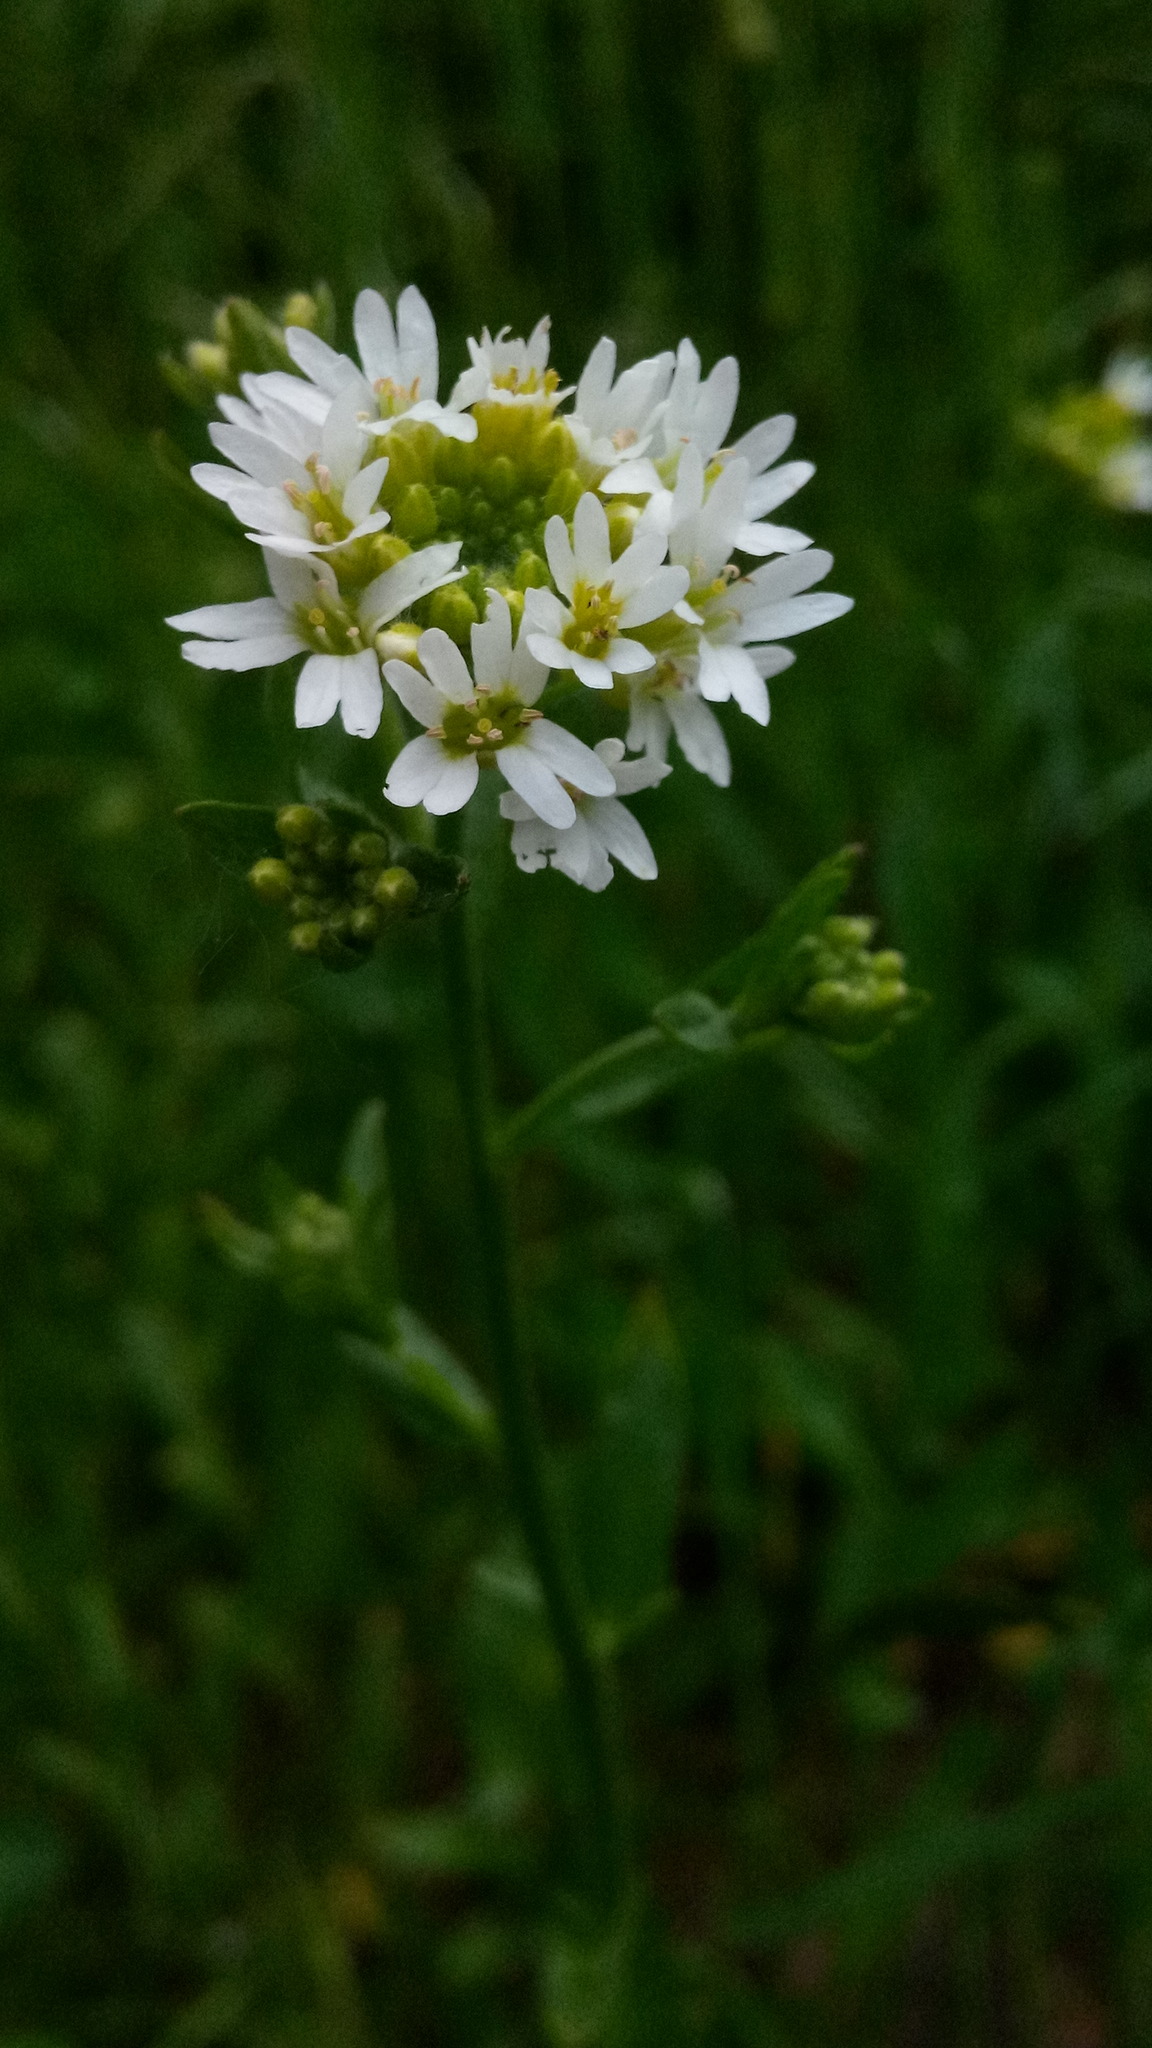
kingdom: Plantae
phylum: Tracheophyta
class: Magnoliopsida
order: Brassicales
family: Brassicaceae
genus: Berteroa
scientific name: Berteroa incana
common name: Hoary alison
